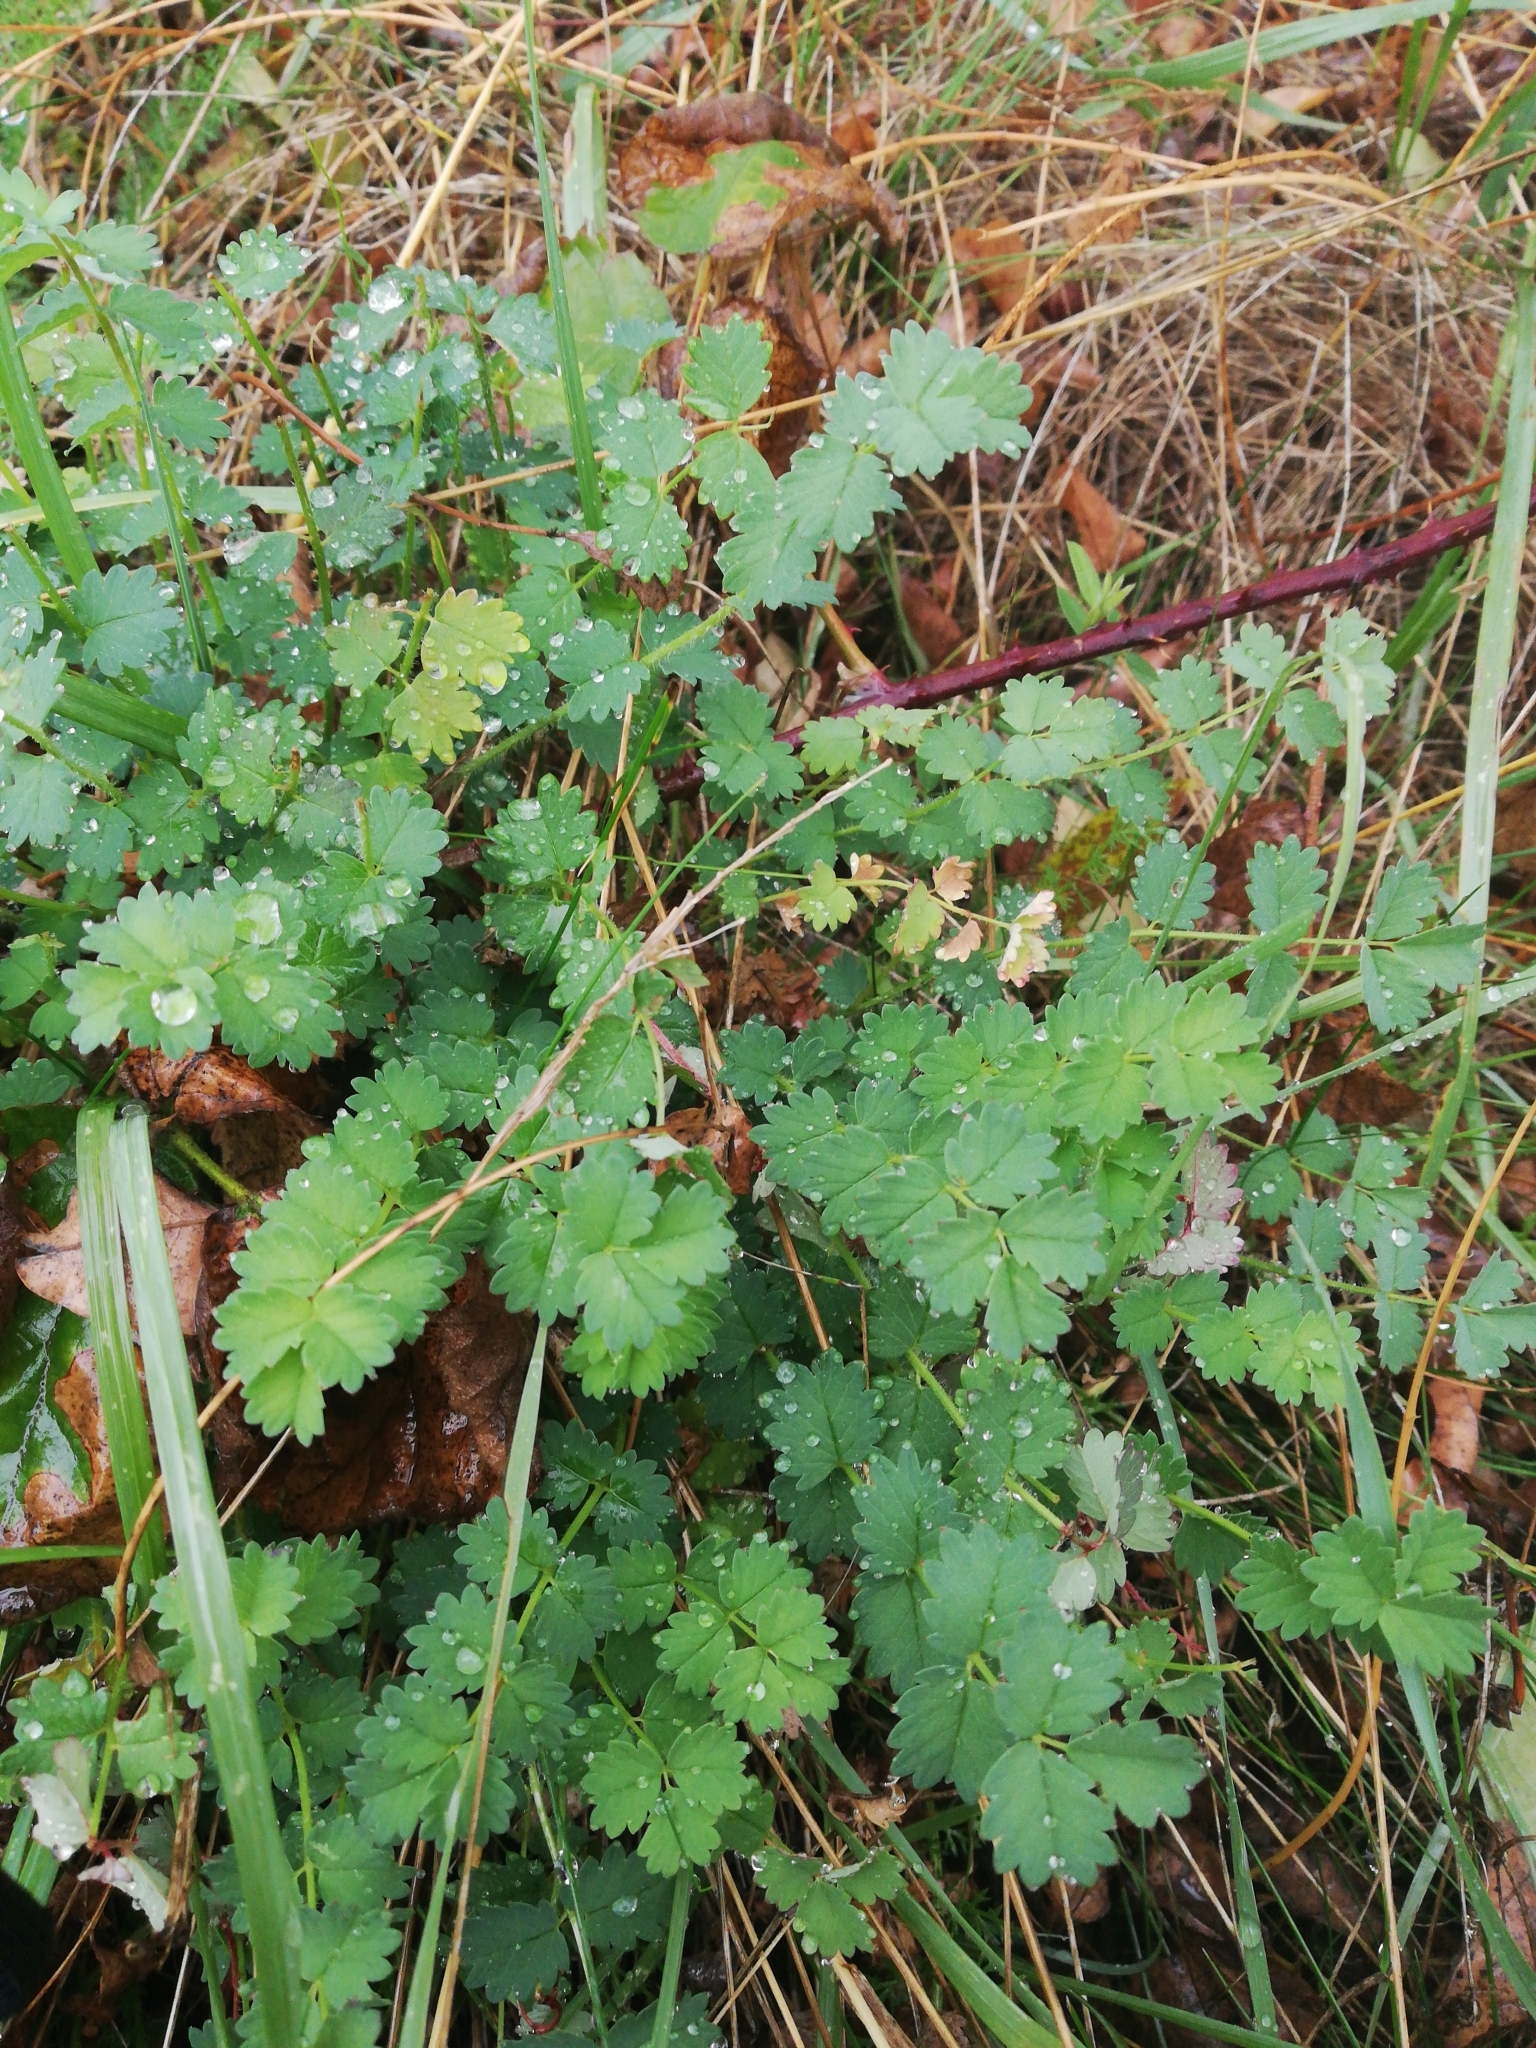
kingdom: Plantae
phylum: Tracheophyta
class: Magnoliopsida
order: Rosales
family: Rosaceae
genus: Poterium
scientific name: Poterium sanguisorba
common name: Salad burnet
